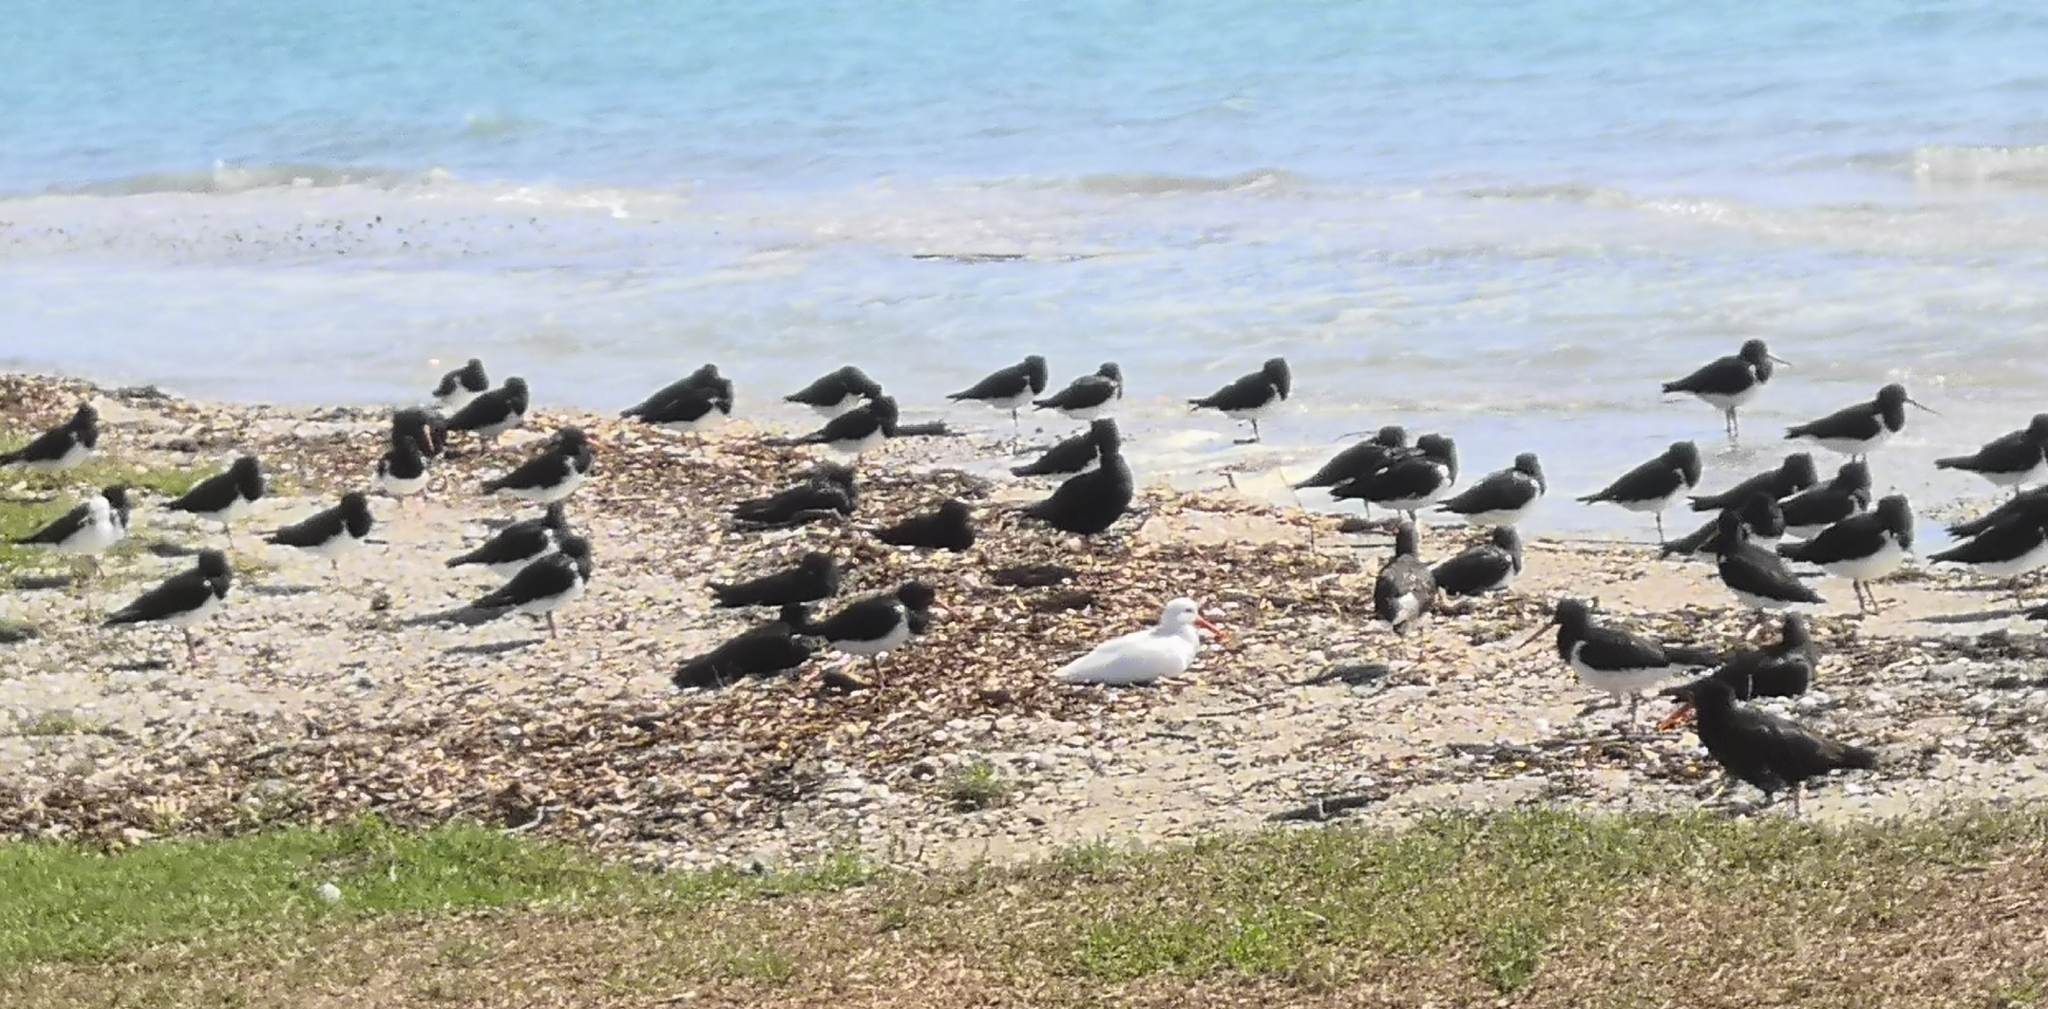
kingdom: Animalia
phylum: Chordata
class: Aves
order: Charadriiformes
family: Haematopodidae
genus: Haematopus
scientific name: Haematopus finschi
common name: South island oystercatcher
